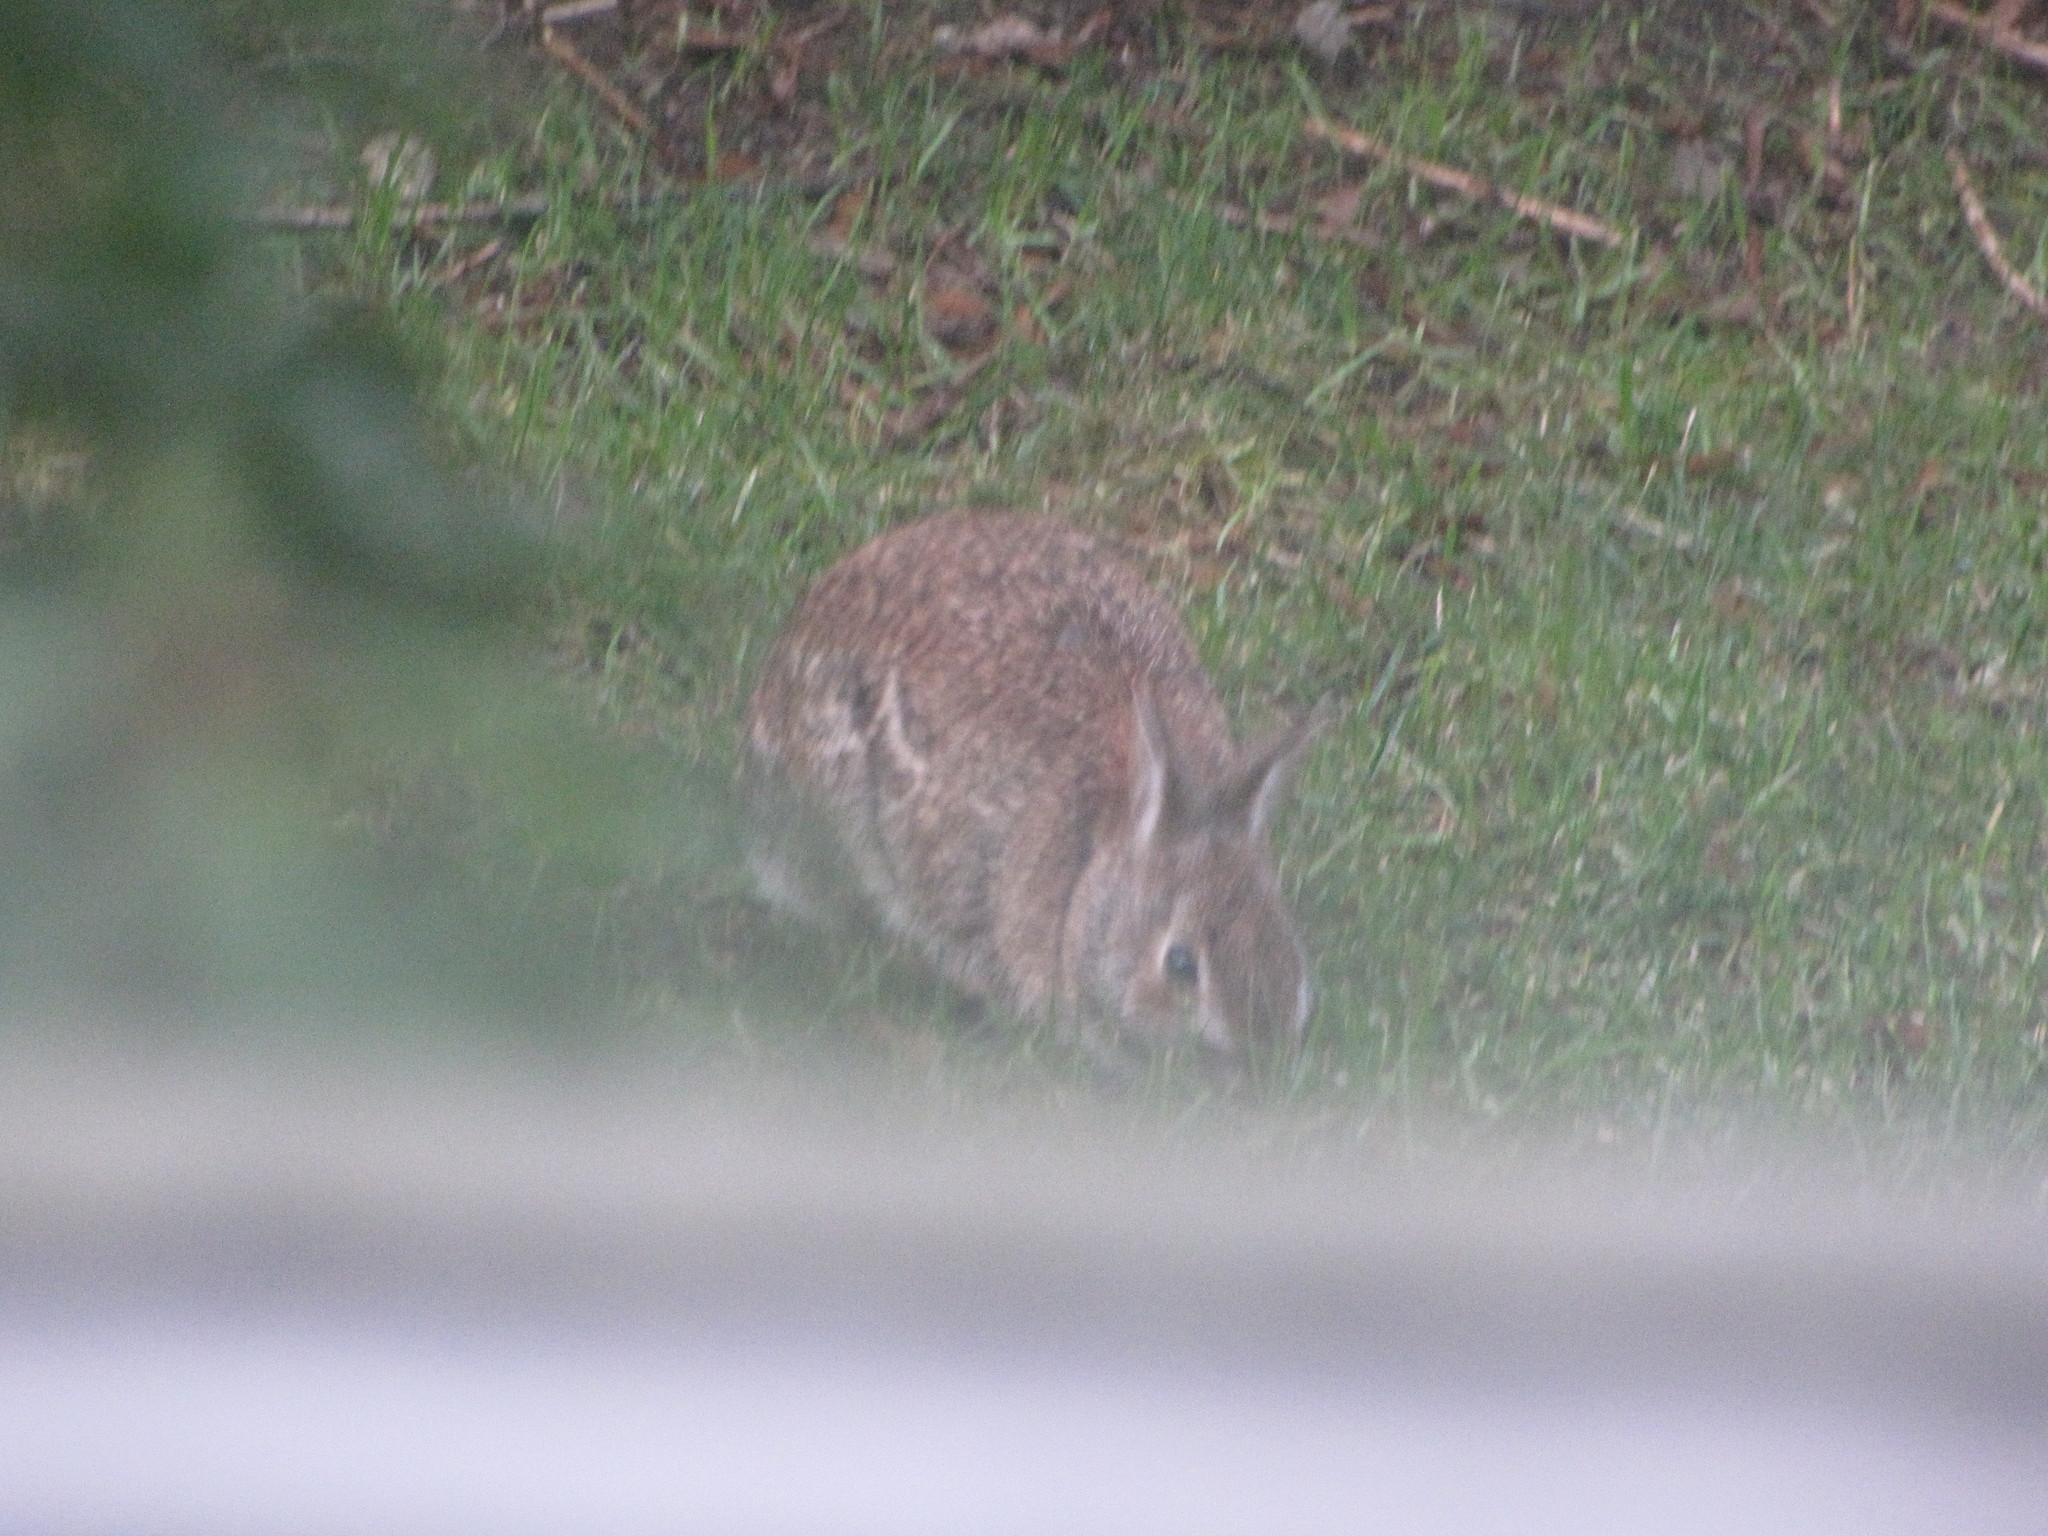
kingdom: Animalia
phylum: Chordata
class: Mammalia
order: Lagomorpha
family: Leporidae
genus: Sylvilagus
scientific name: Sylvilagus floridanus
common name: Eastern cottontail
